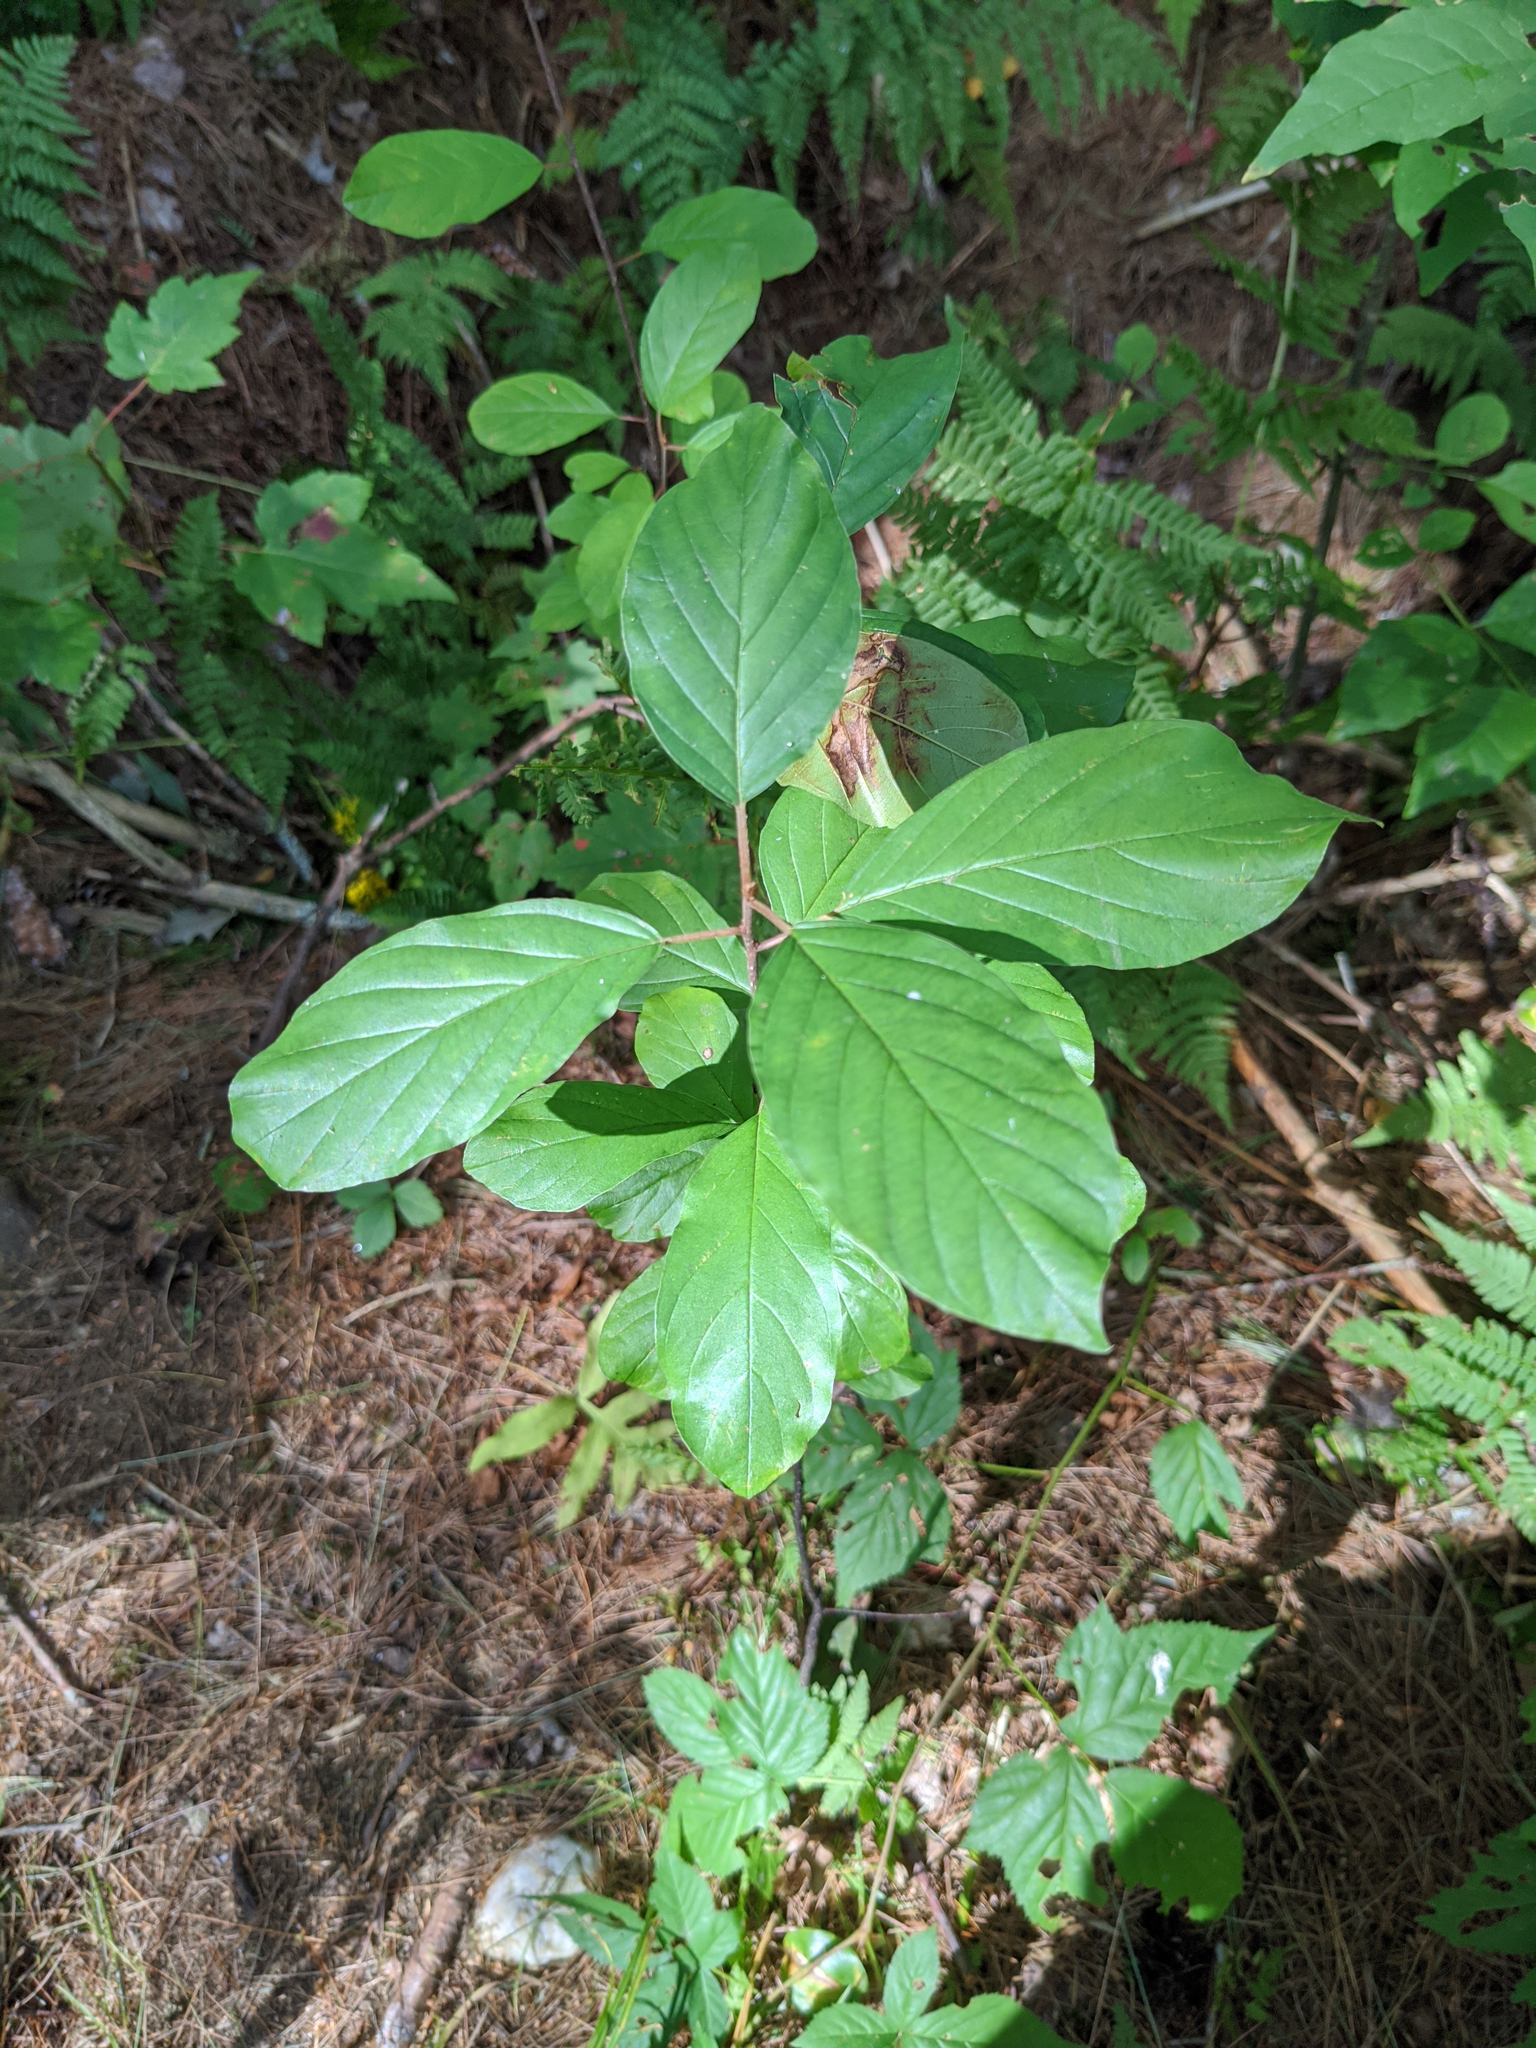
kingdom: Plantae
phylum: Tracheophyta
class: Magnoliopsida
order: Rosales
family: Rhamnaceae
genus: Frangula
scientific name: Frangula alnus
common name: Alder buckthorn
